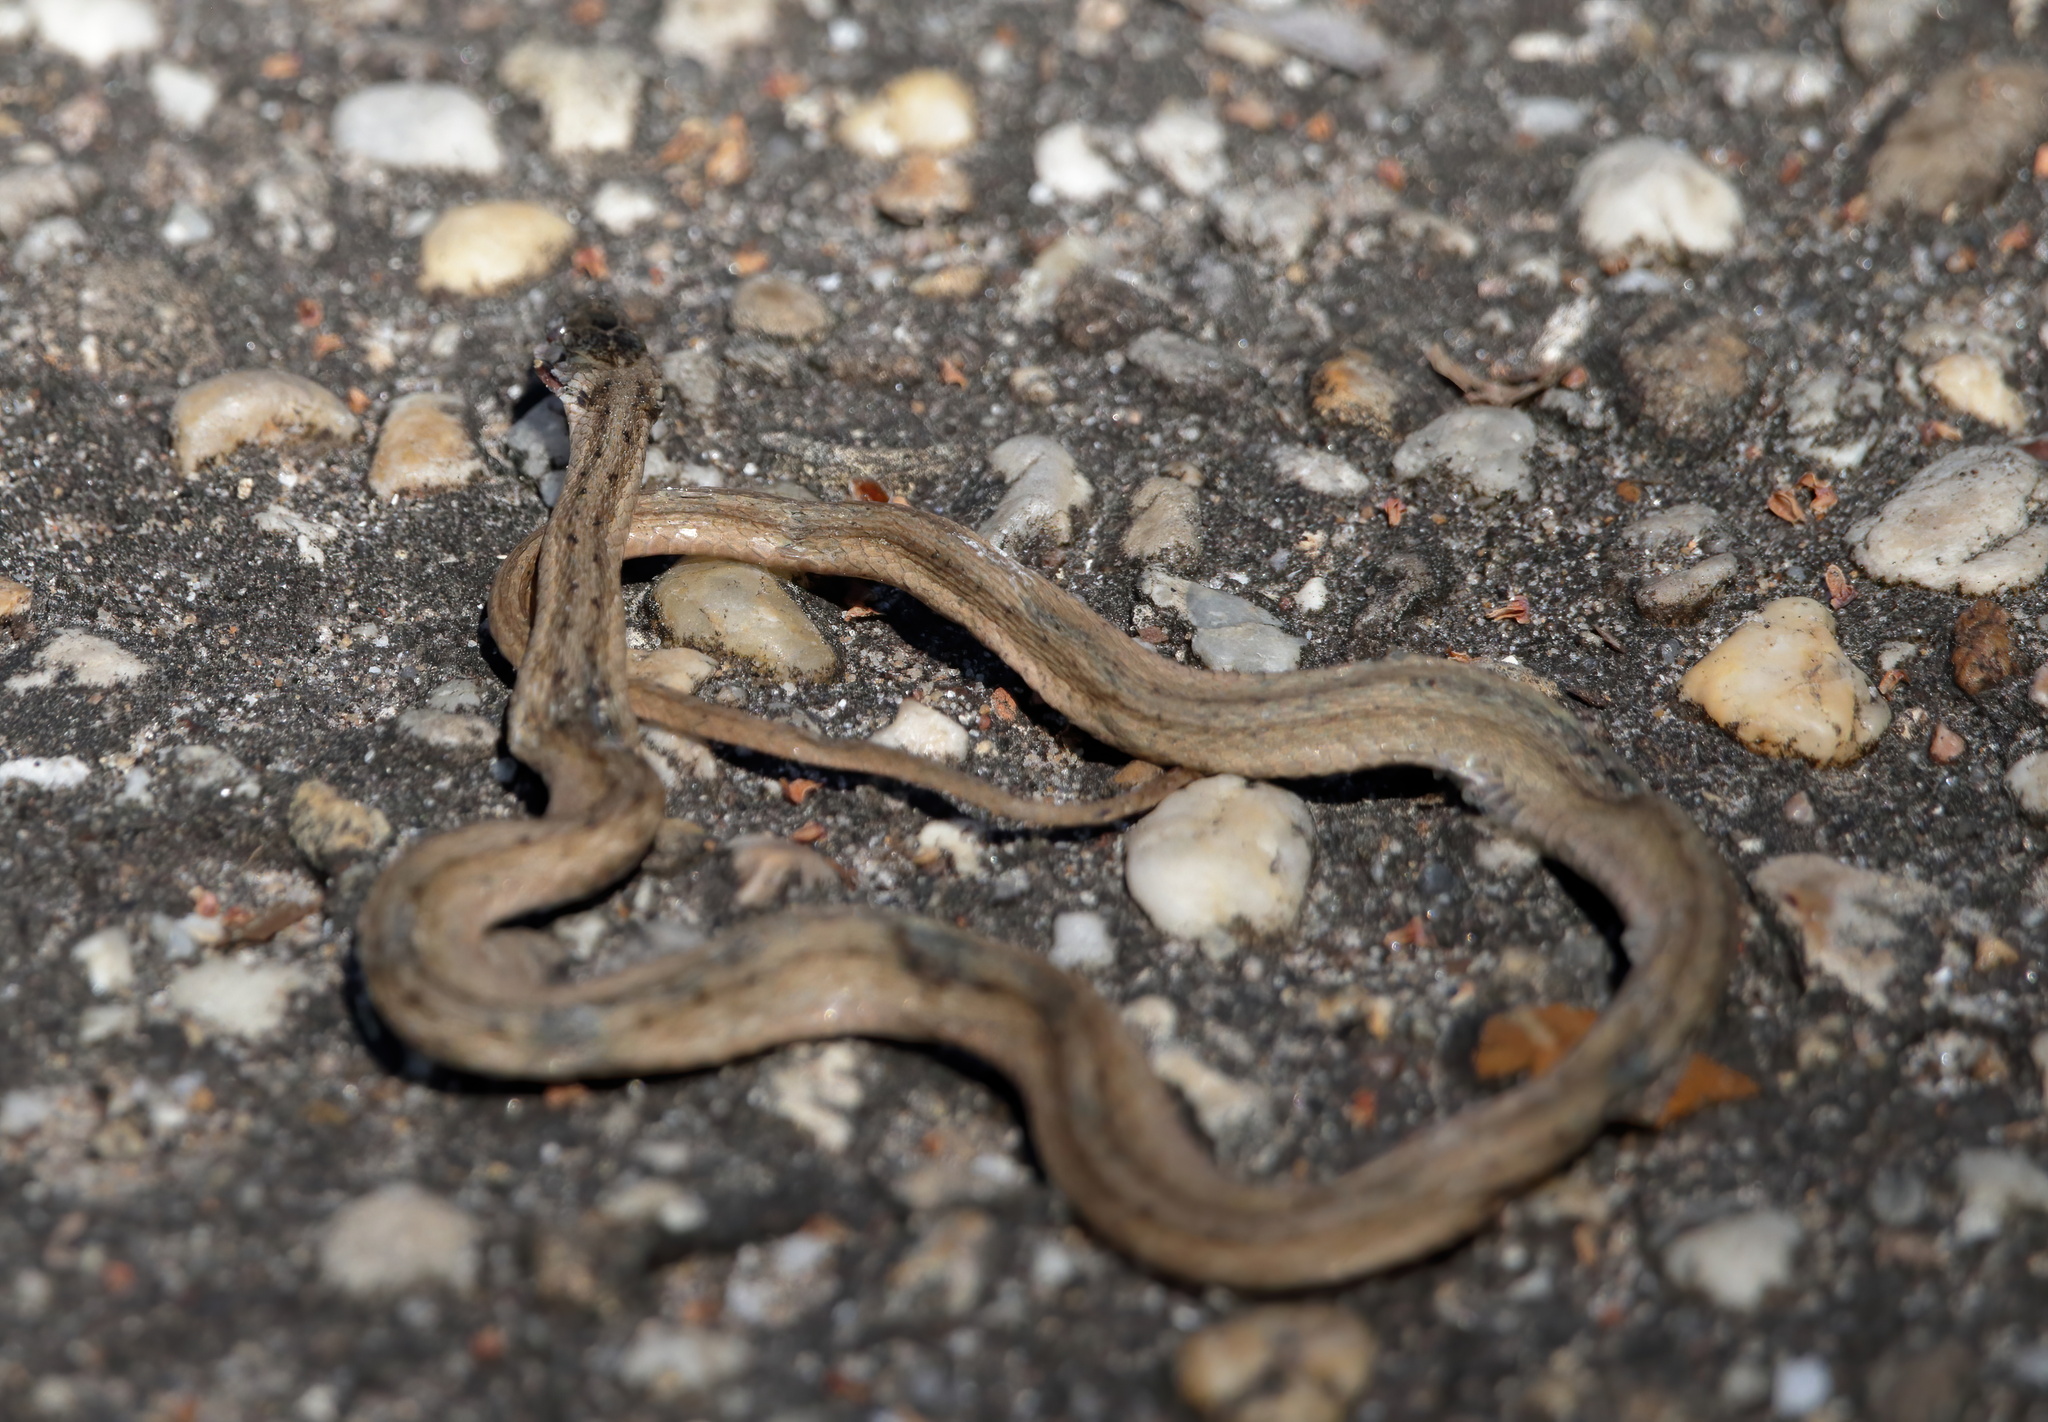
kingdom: Animalia
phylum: Chordata
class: Squamata
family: Colubridae
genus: Storeria
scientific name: Storeria dekayi
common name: (dekay’s) brown snake
